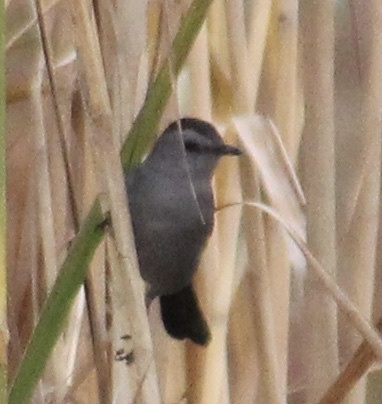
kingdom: Animalia
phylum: Chordata
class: Aves
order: Passeriformes
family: Mimidae
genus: Dumetella
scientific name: Dumetella carolinensis
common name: Gray catbird
